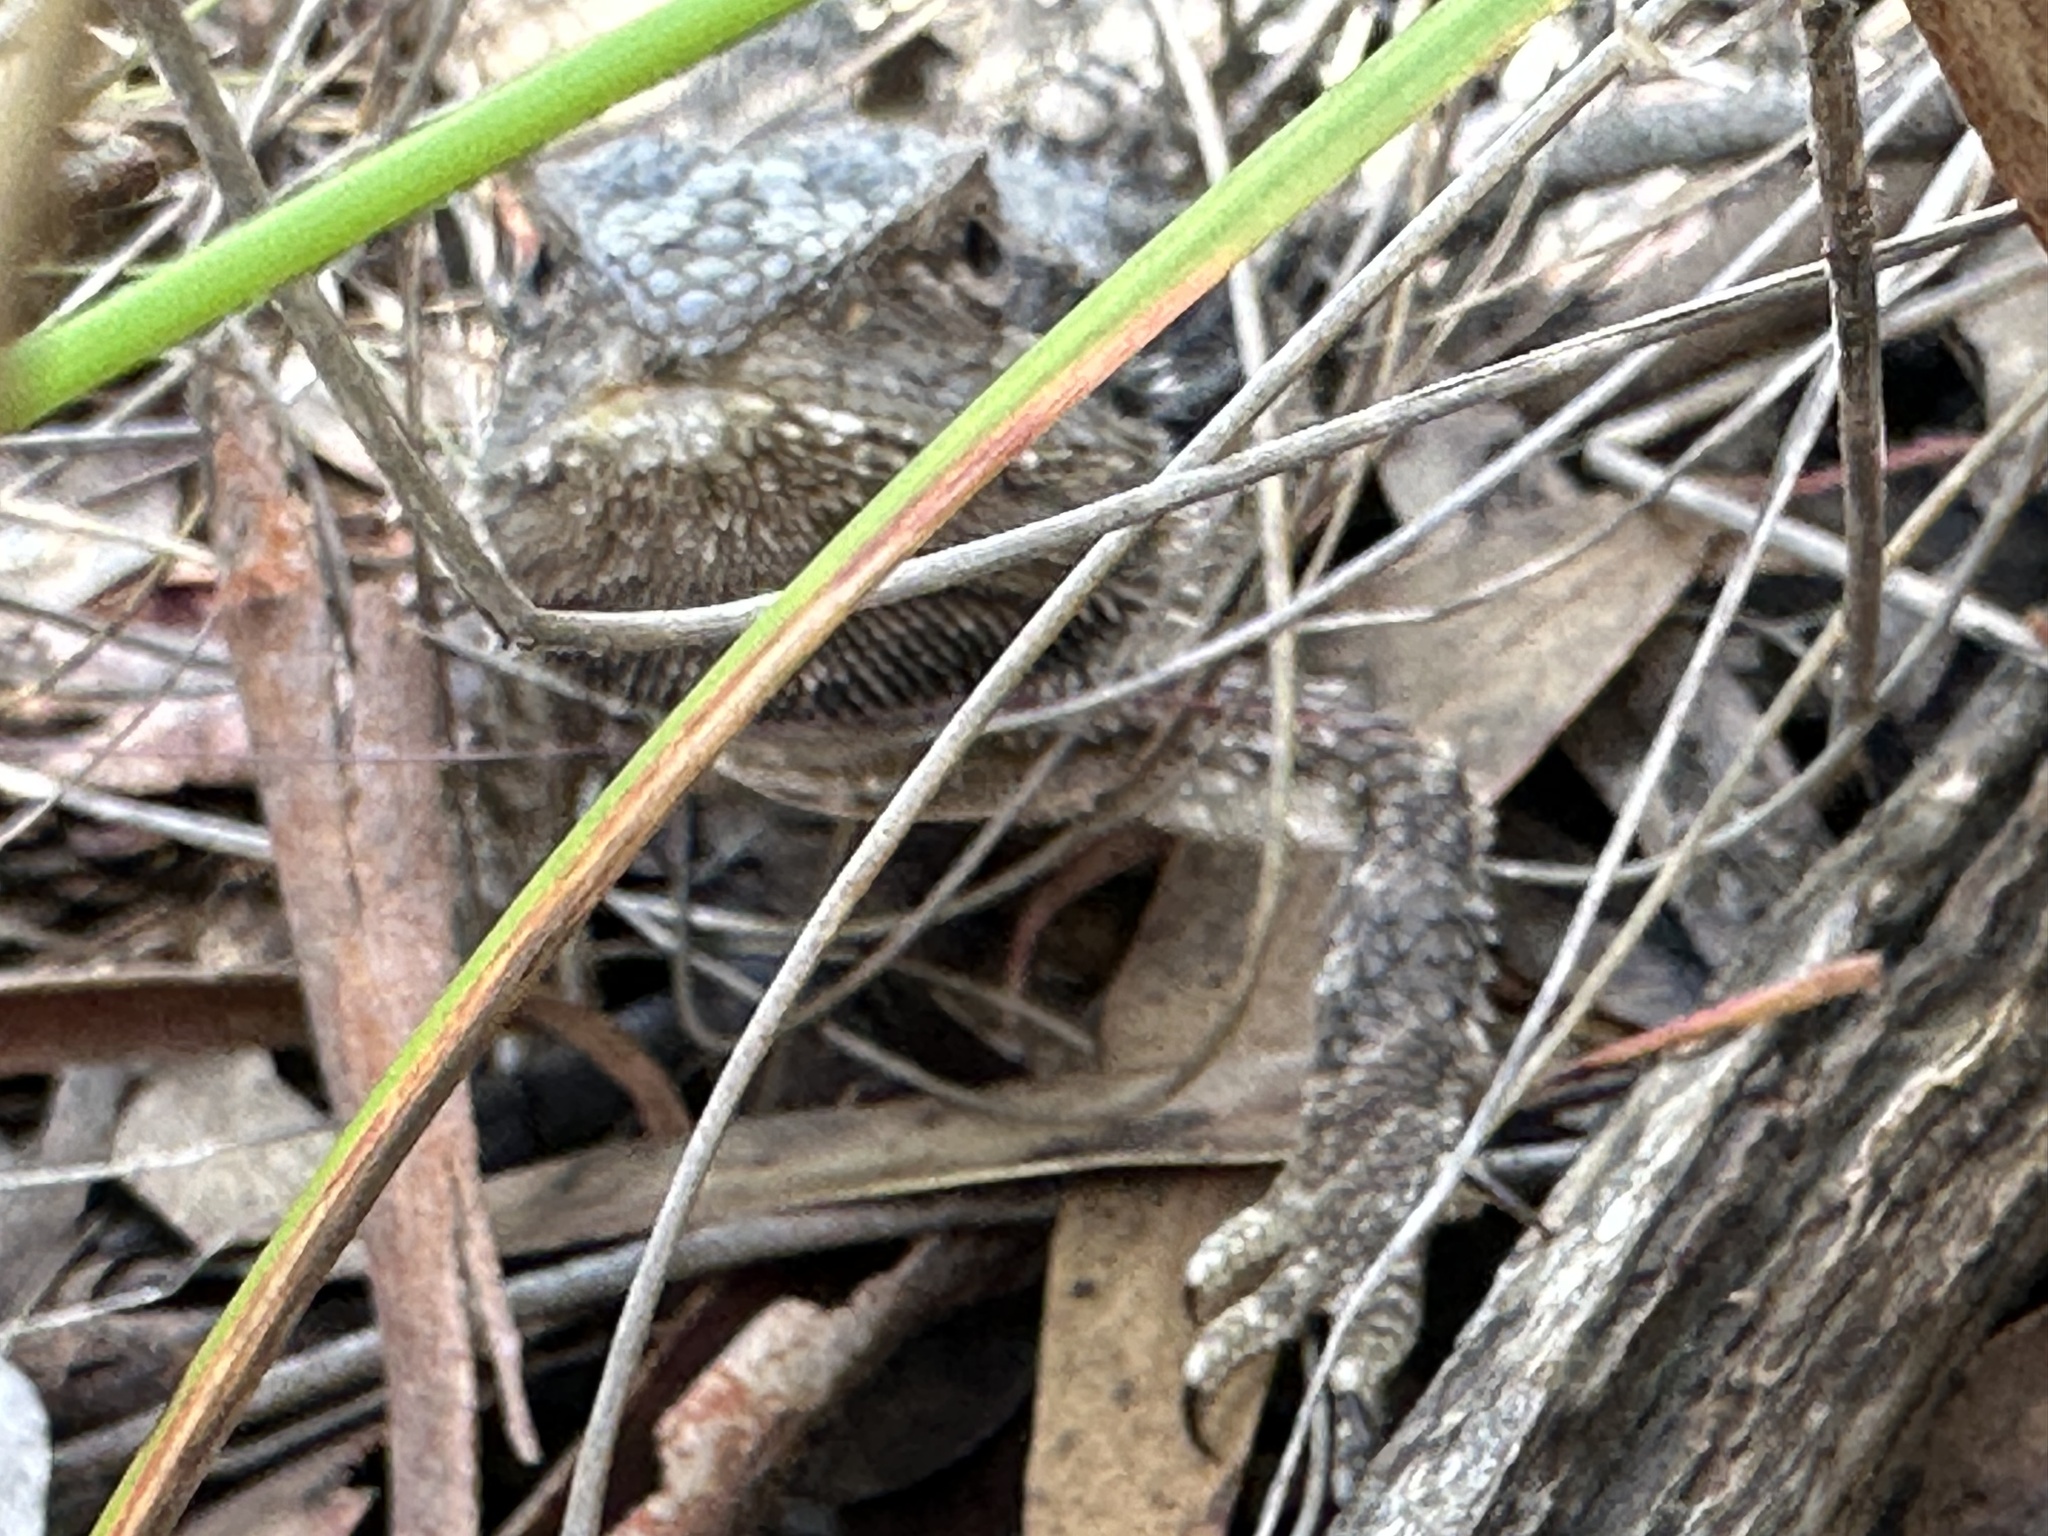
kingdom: Animalia
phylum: Chordata
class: Squamata
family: Agamidae
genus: Pogona
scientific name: Pogona barbata
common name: Bearded dragon
